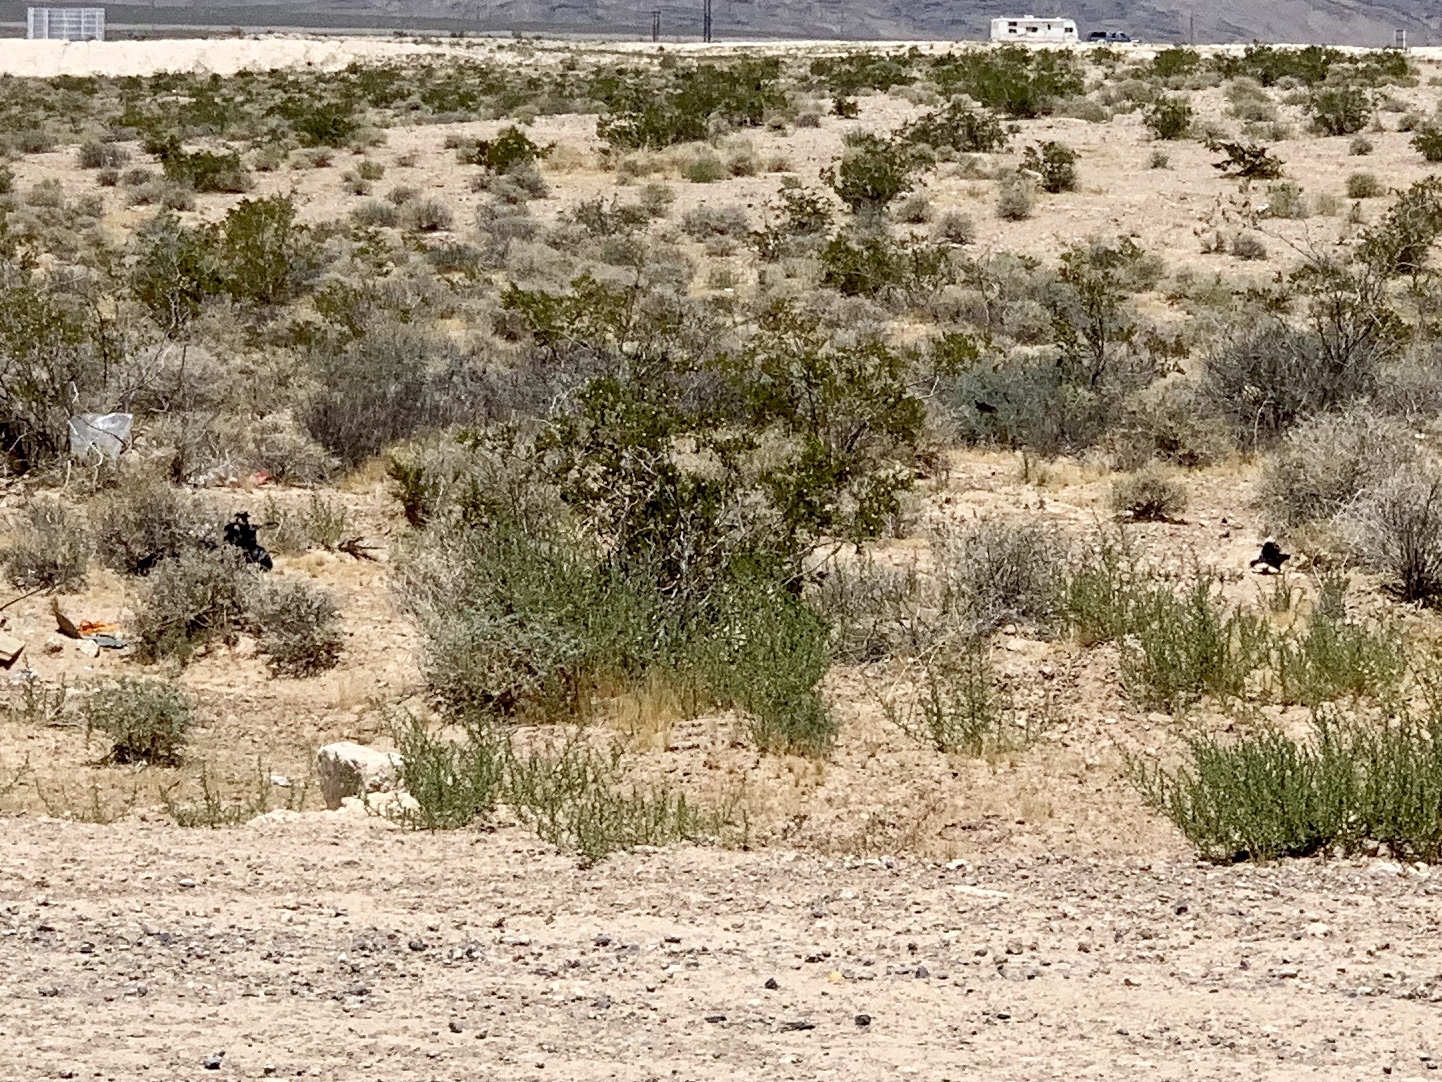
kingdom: Plantae
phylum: Tracheophyta
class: Magnoliopsida
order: Zygophyllales
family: Zygophyllaceae
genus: Larrea
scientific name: Larrea tridentata
